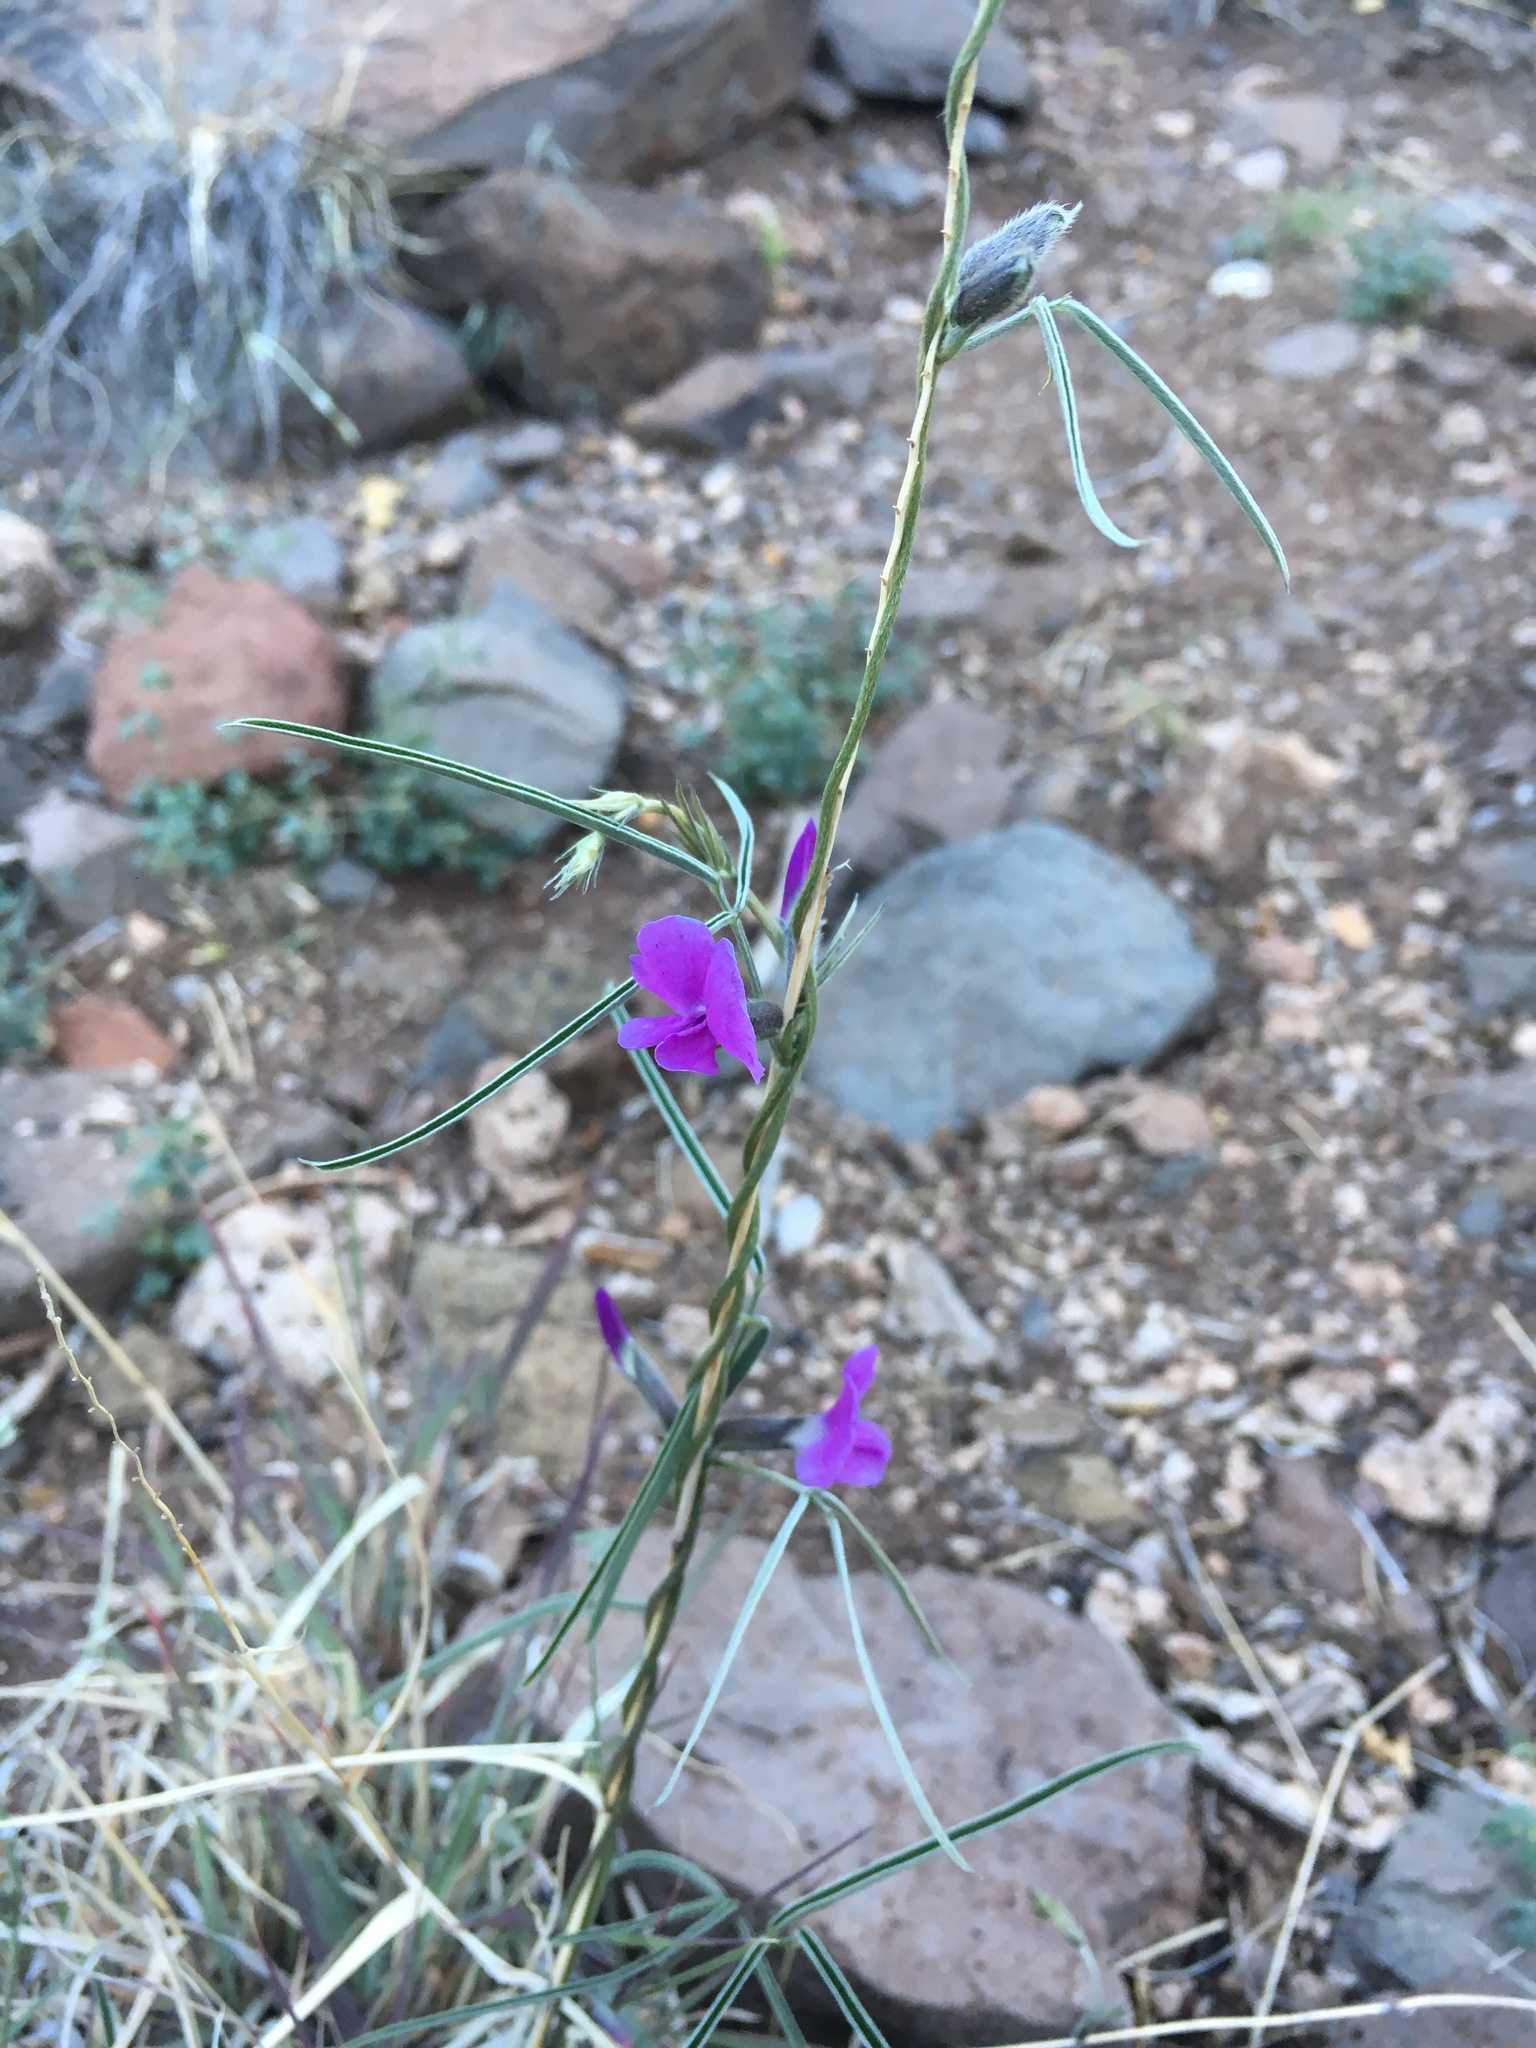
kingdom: Plantae
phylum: Tracheophyta
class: Magnoliopsida
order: Fabales
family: Fabaceae
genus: Cologania
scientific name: Cologania angustifolia
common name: Longleaf cologania
